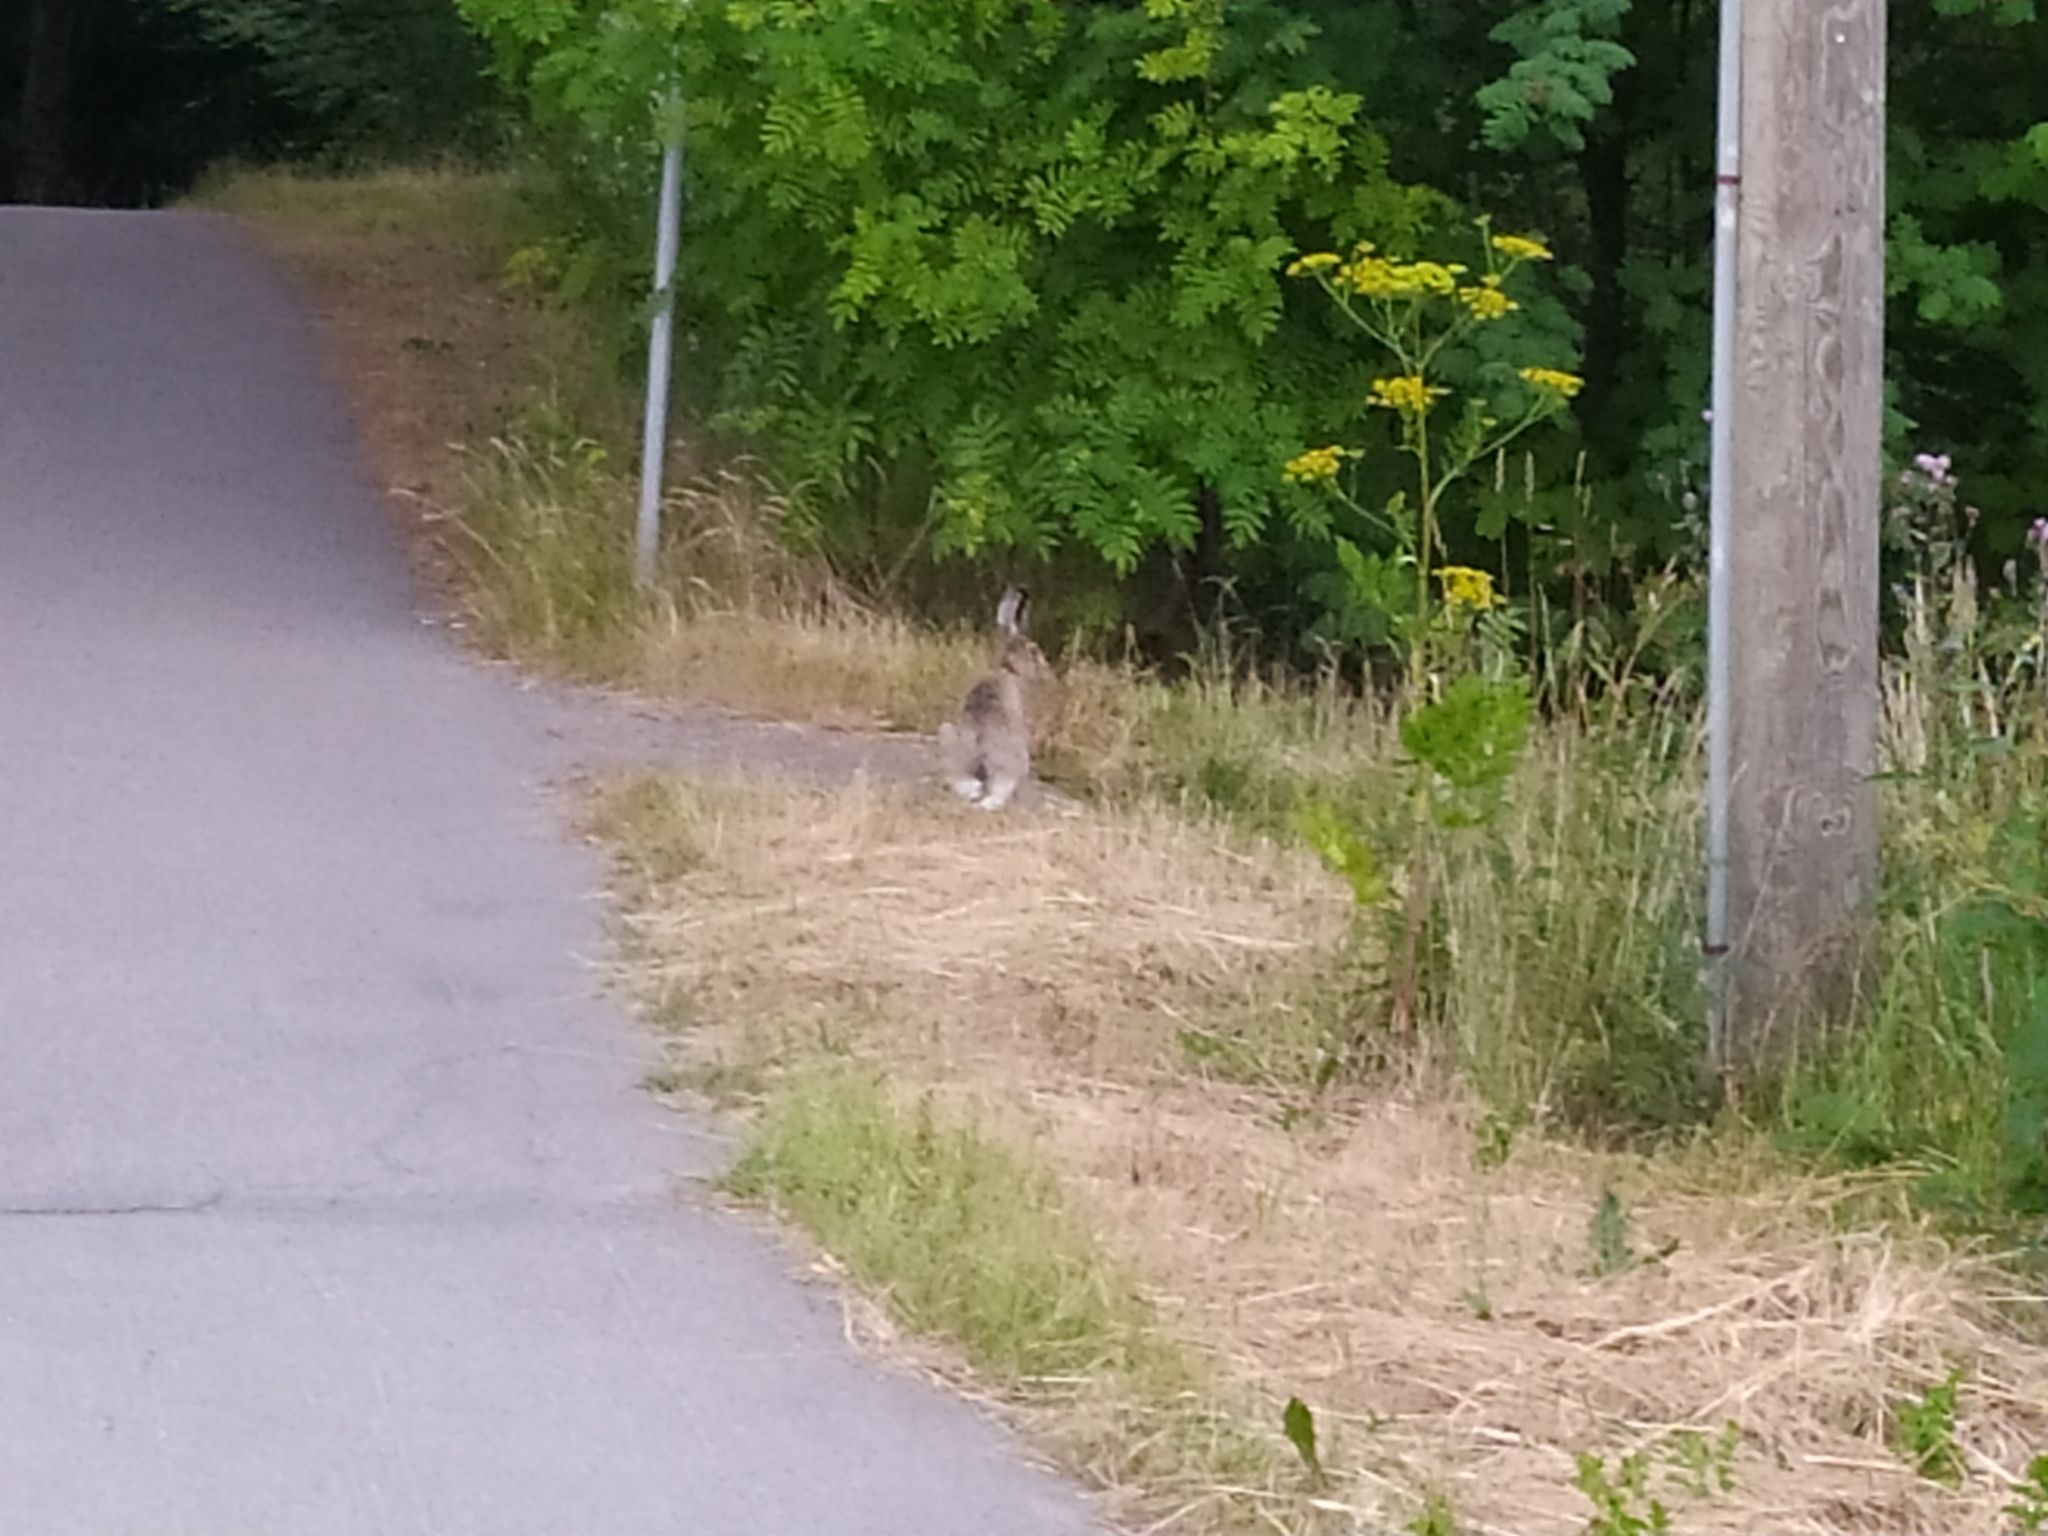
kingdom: Animalia
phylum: Chordata
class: Mammalia
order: Lagomorpha
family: Leporidae
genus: Lepus
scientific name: Lepus europaeus
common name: European hare
